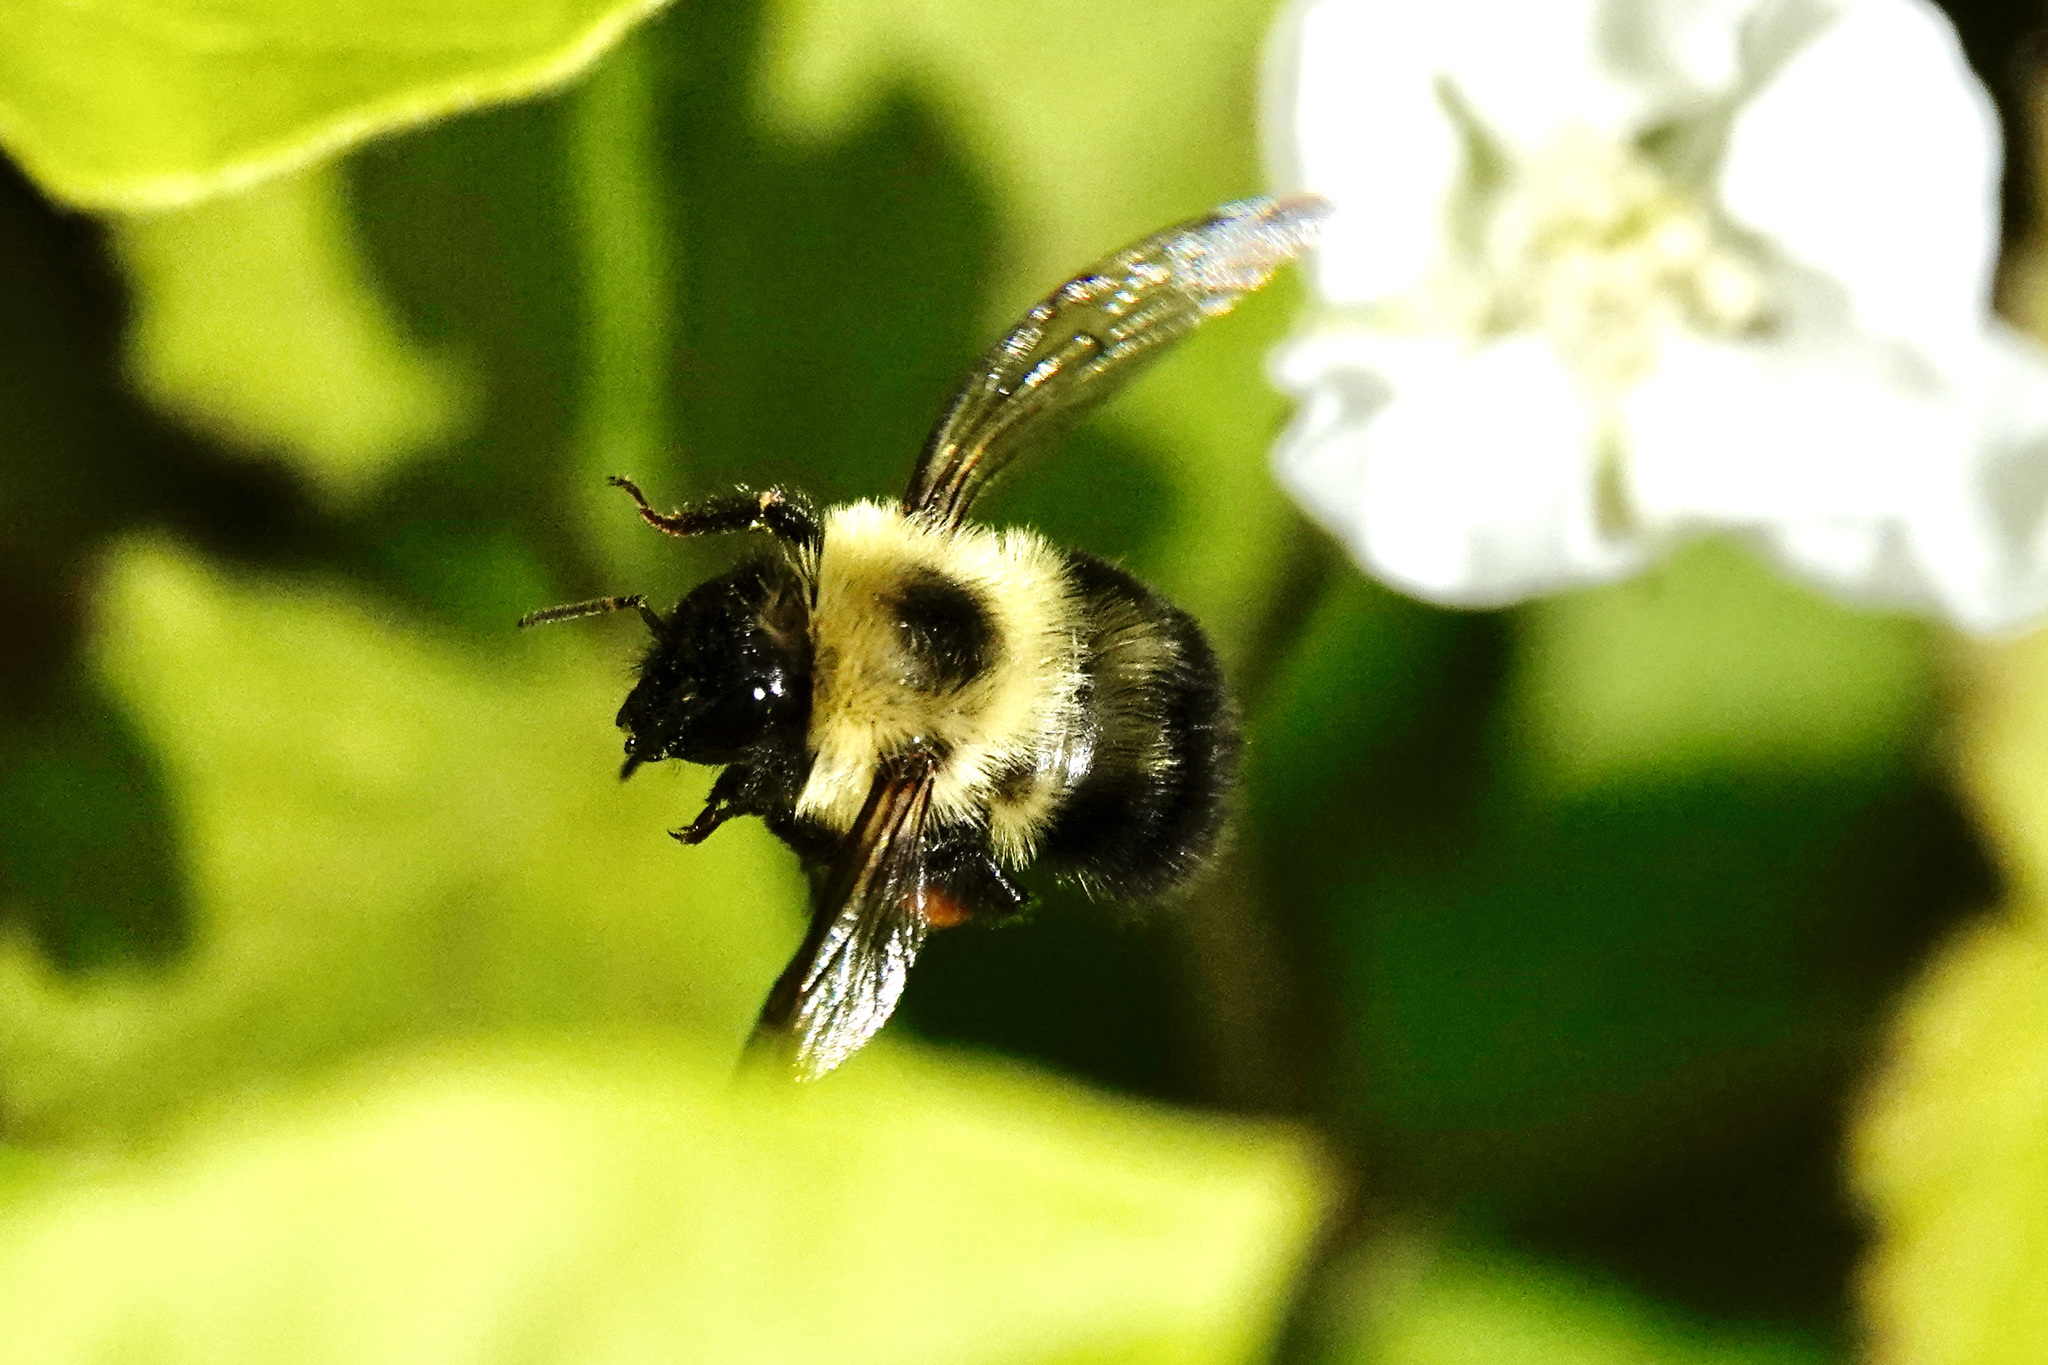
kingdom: Animalia
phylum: Arthropoda
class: Insecta
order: Hymenoptera
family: Apidae
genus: Bombus
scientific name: Bombus bimaculatus
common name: Two-spotted bumble bee
